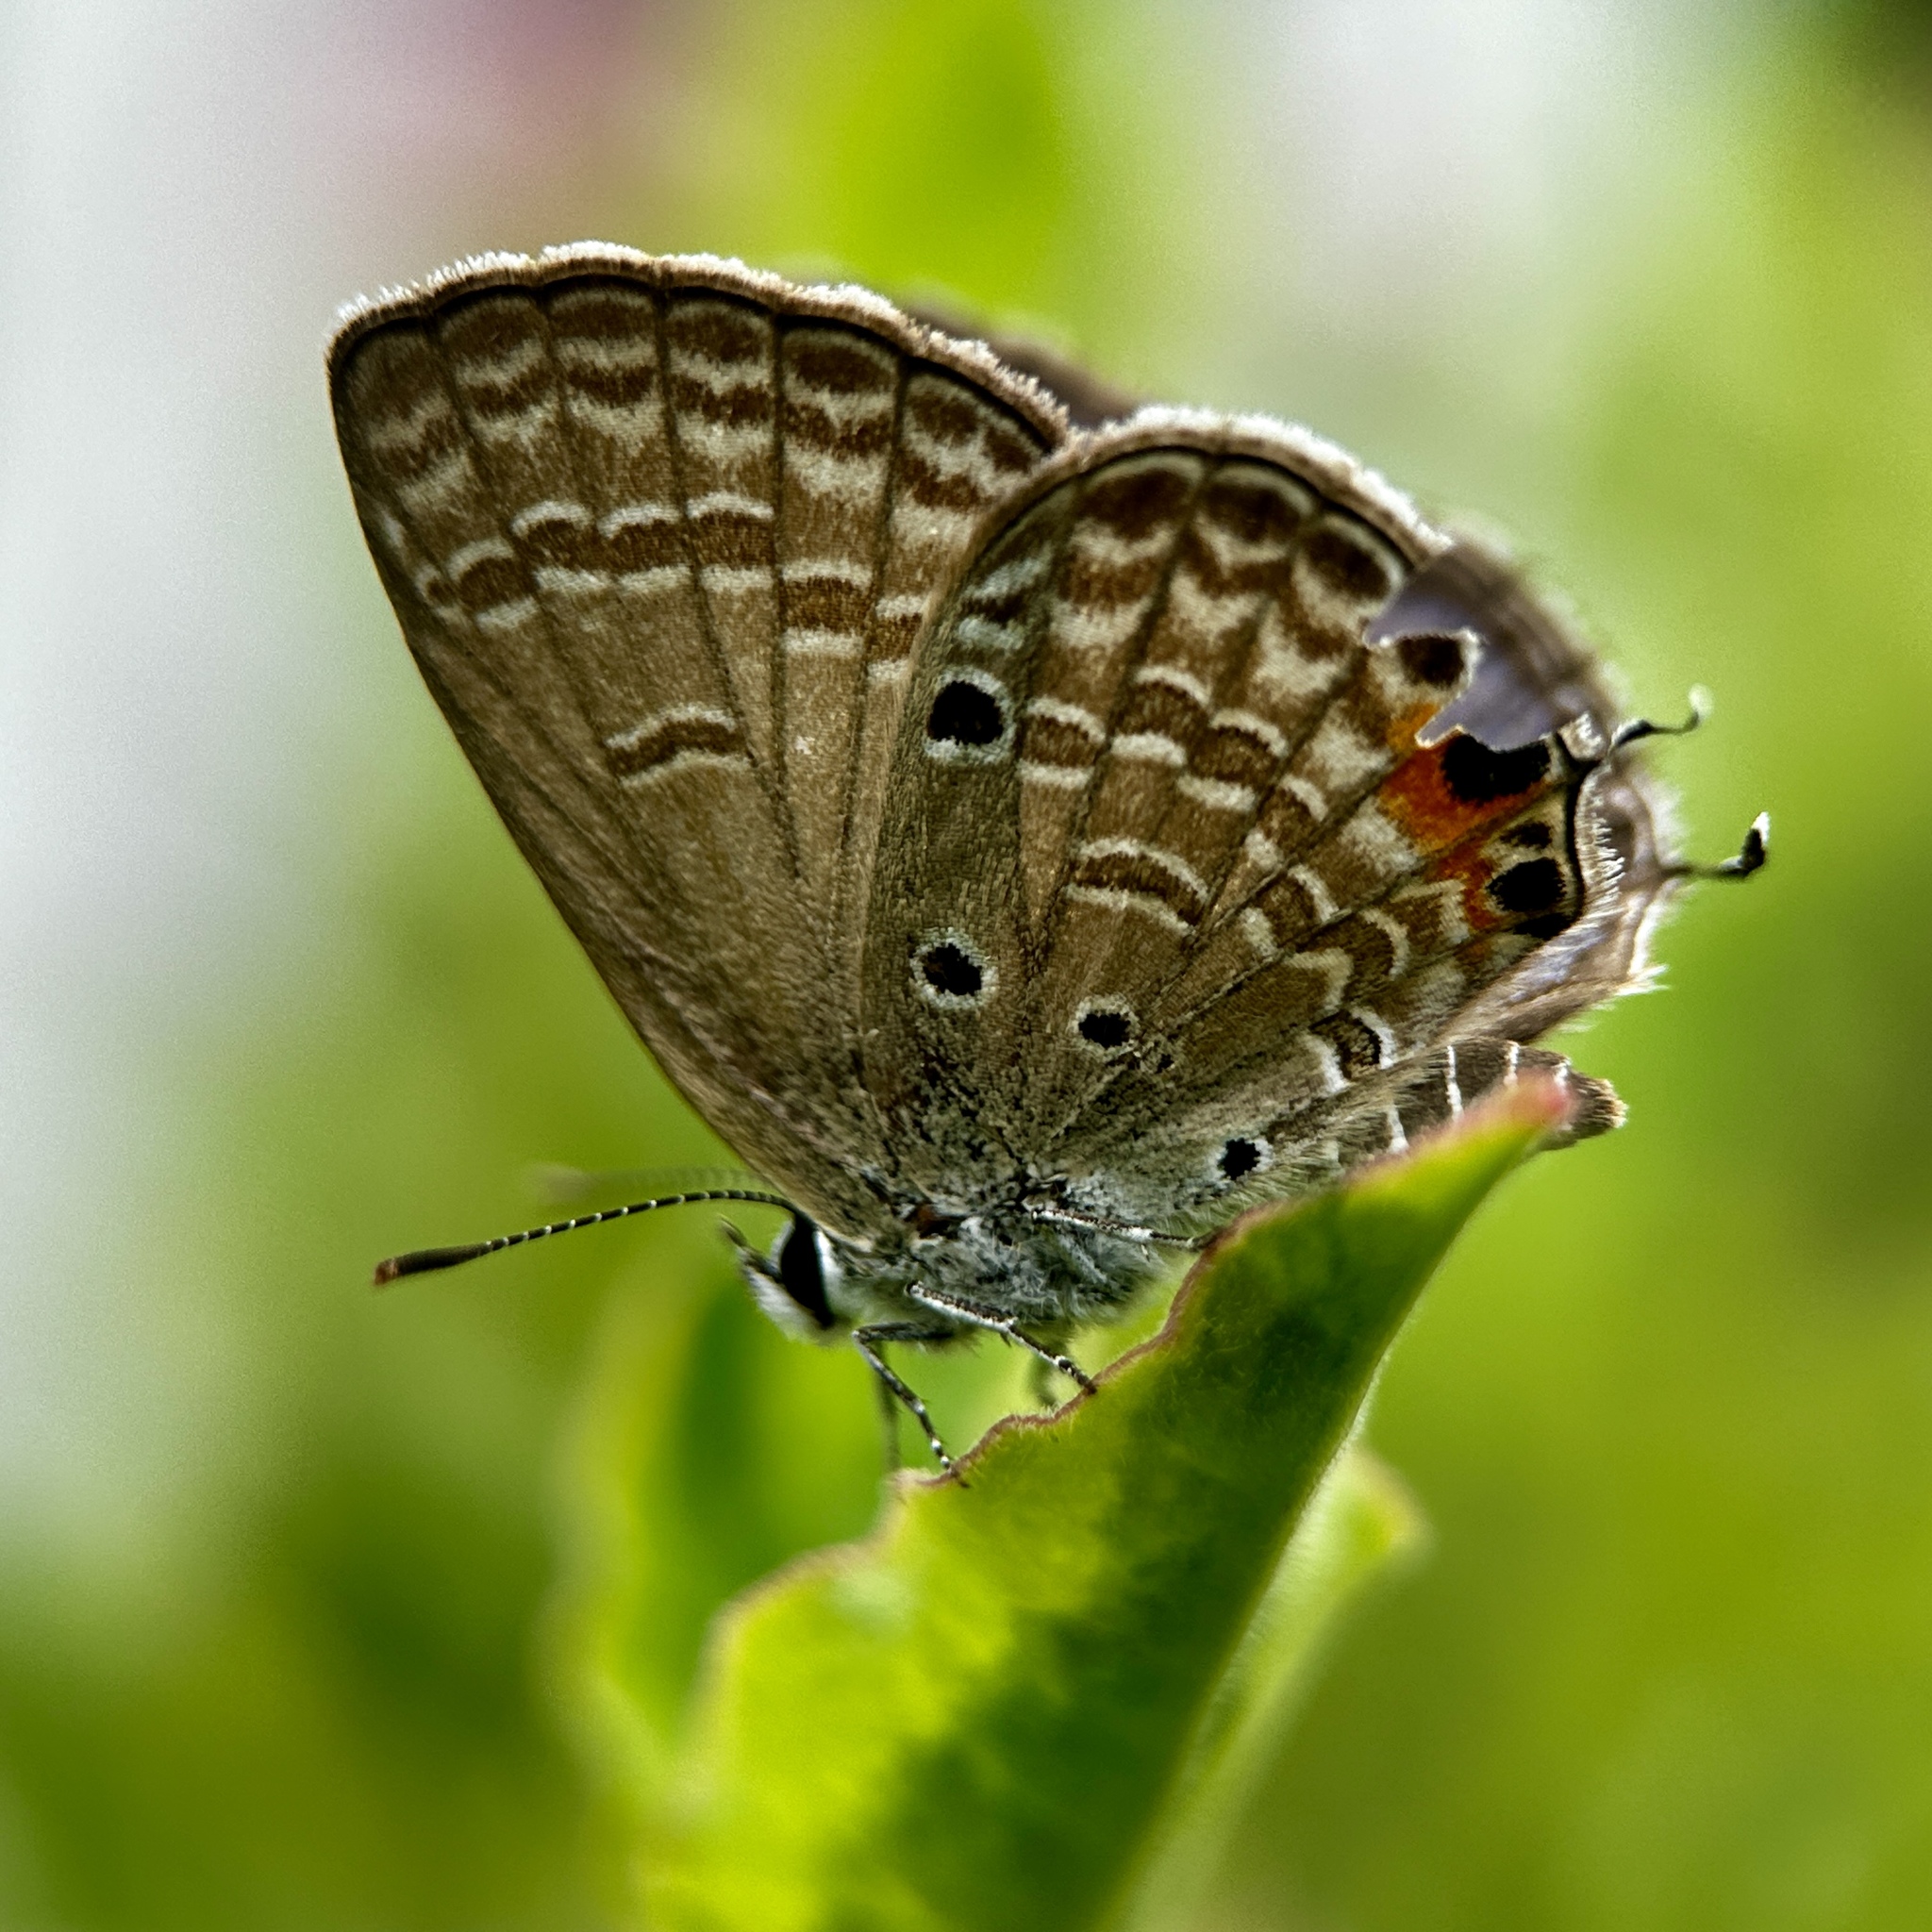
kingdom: Animalia
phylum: Arthropoda
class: Insecta
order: Lepidoptera
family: Lycaenidae
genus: Luthrodes
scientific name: Luthrodes pandava
